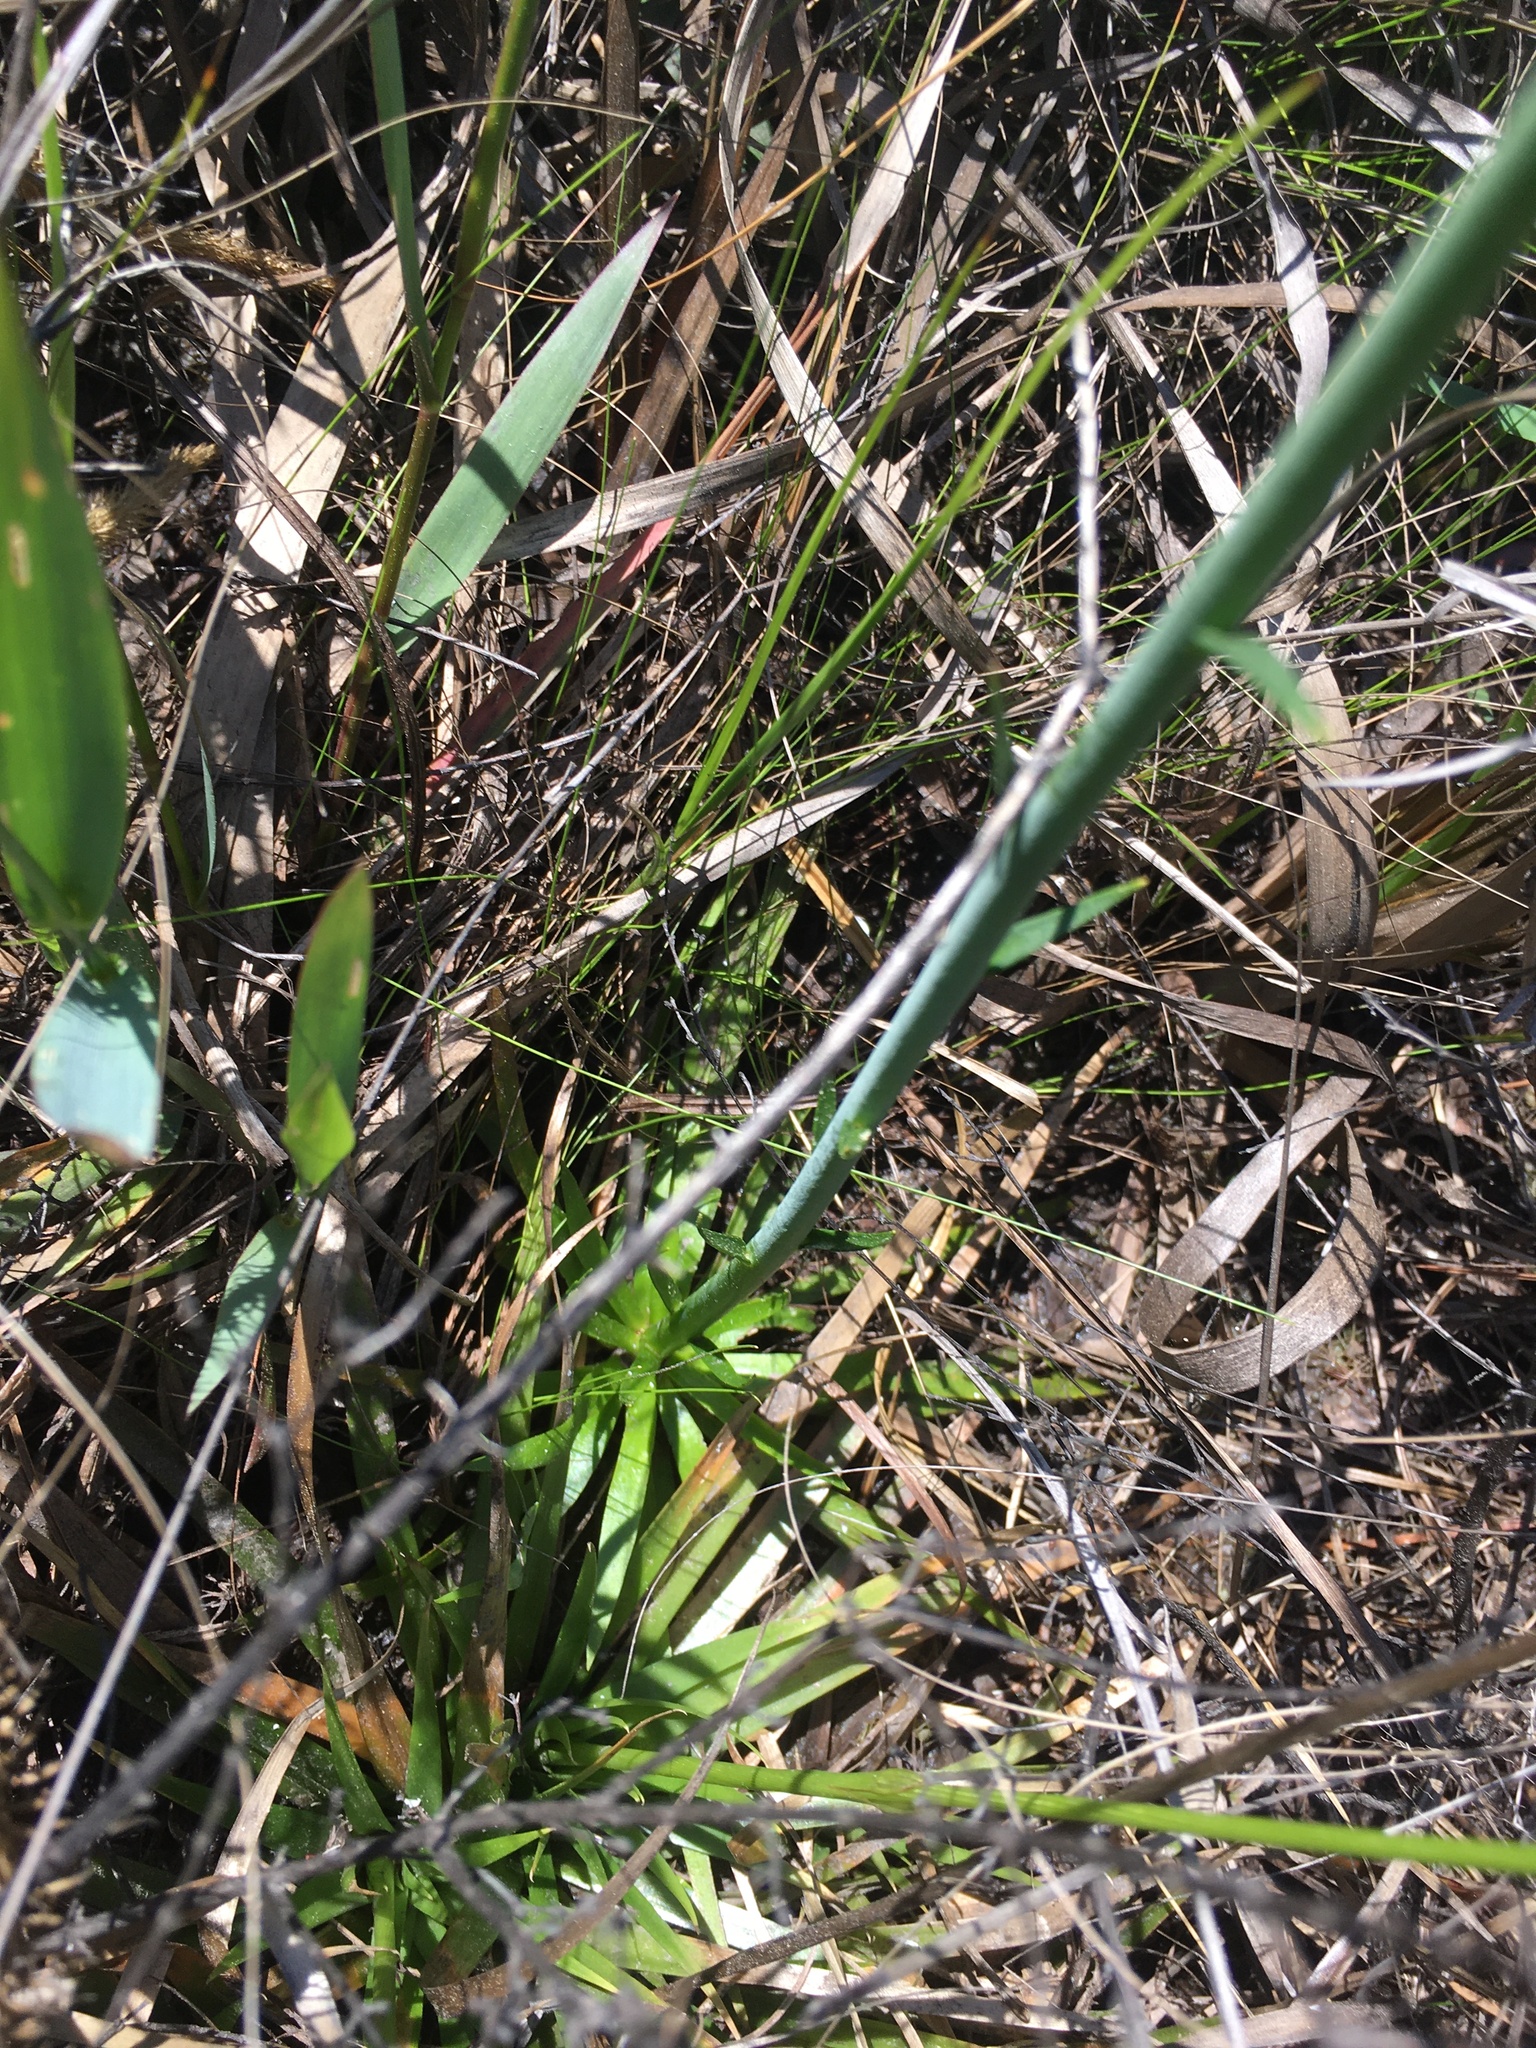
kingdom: Plantae
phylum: Tracheophyta
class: Magnoliopsida
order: Fabales
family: Polygalaceae
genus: Polygala
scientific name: Polygala cymosa
